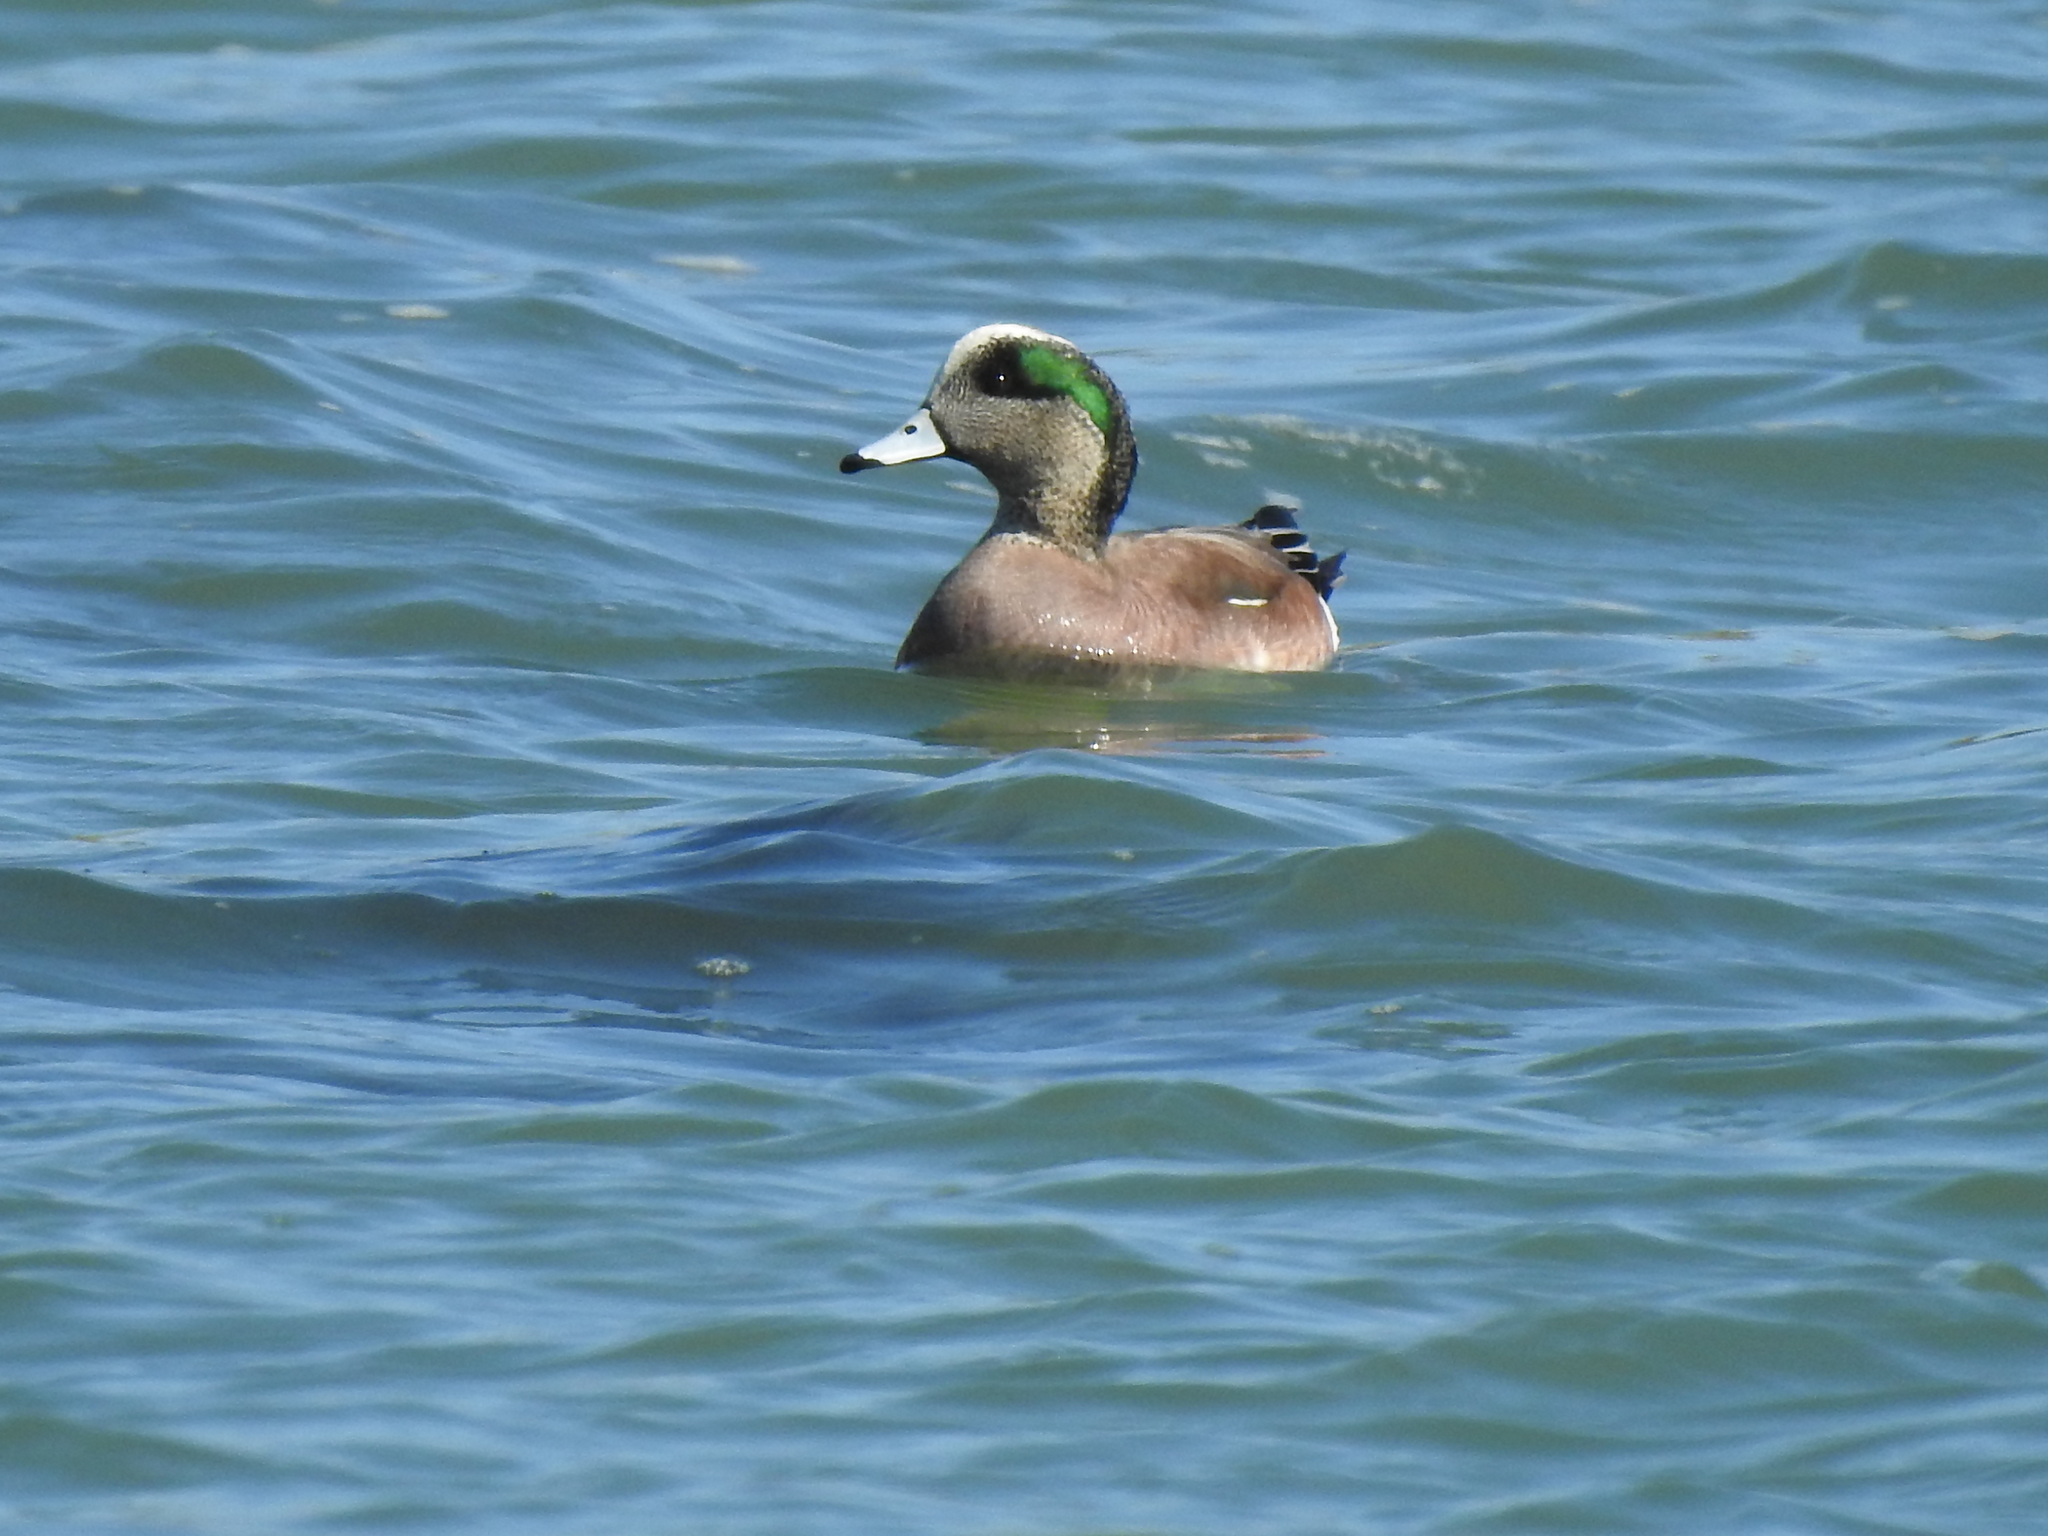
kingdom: Animalia
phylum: Chordata
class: Aves
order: Anseriformes
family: Anatidae
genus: Mareca
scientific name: Mareca americana
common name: American wigeon
